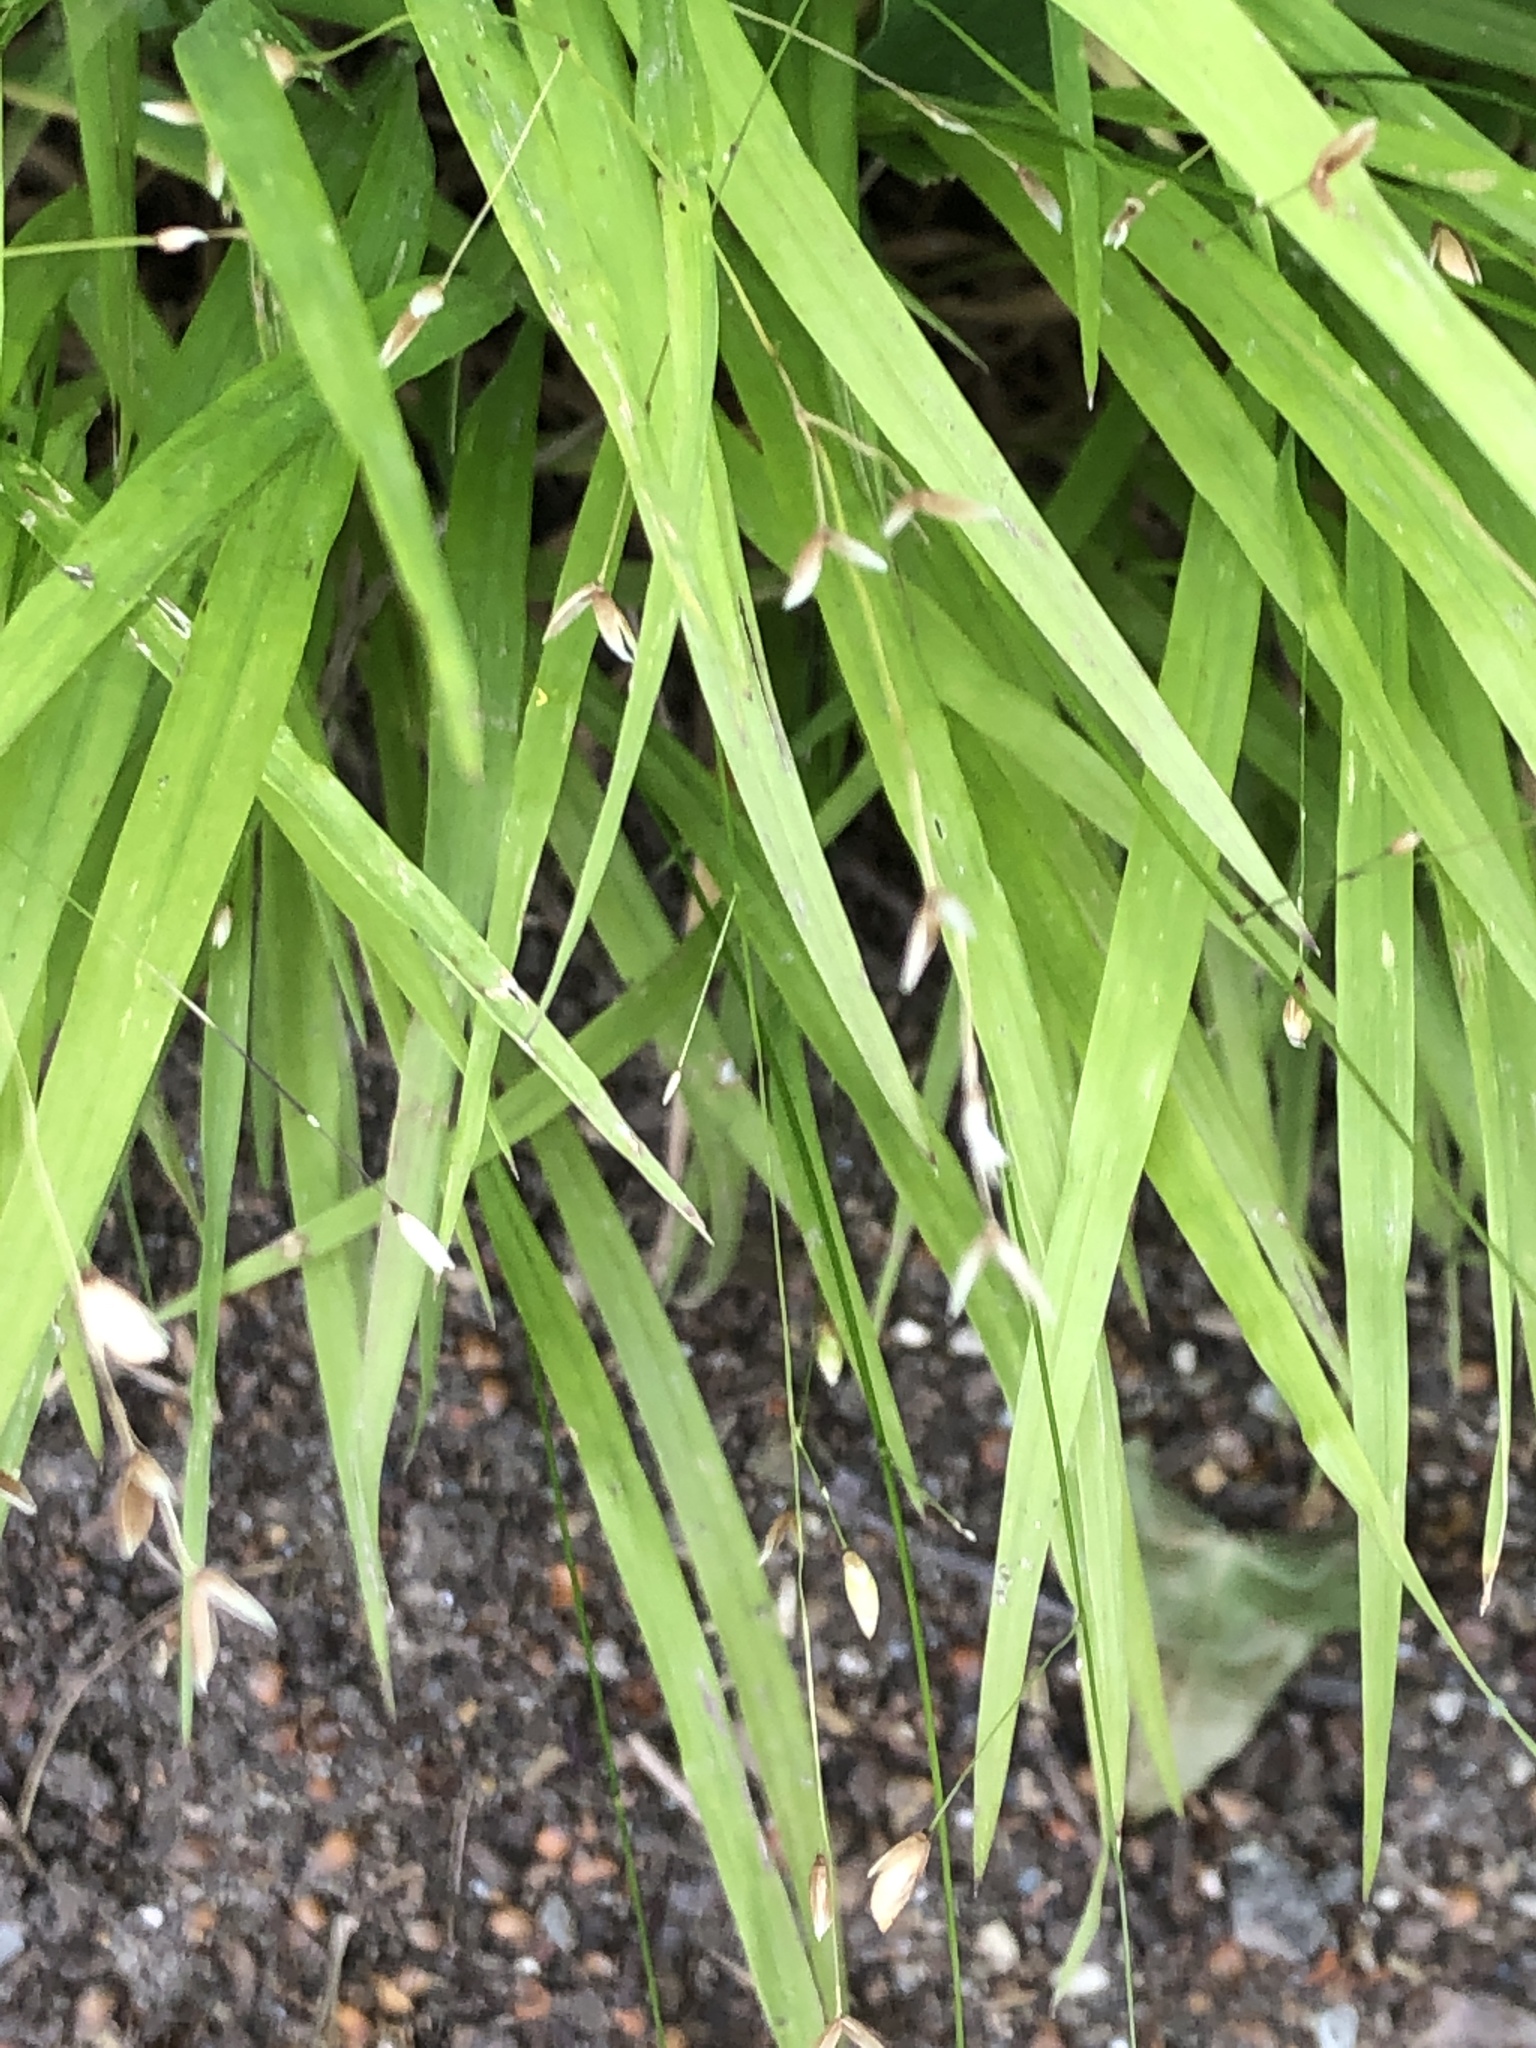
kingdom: Plantae
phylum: Tracheophyta
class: Liliopsida
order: Poales
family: Poaceae
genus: Melica
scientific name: Melica uniflora
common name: Wood melick
